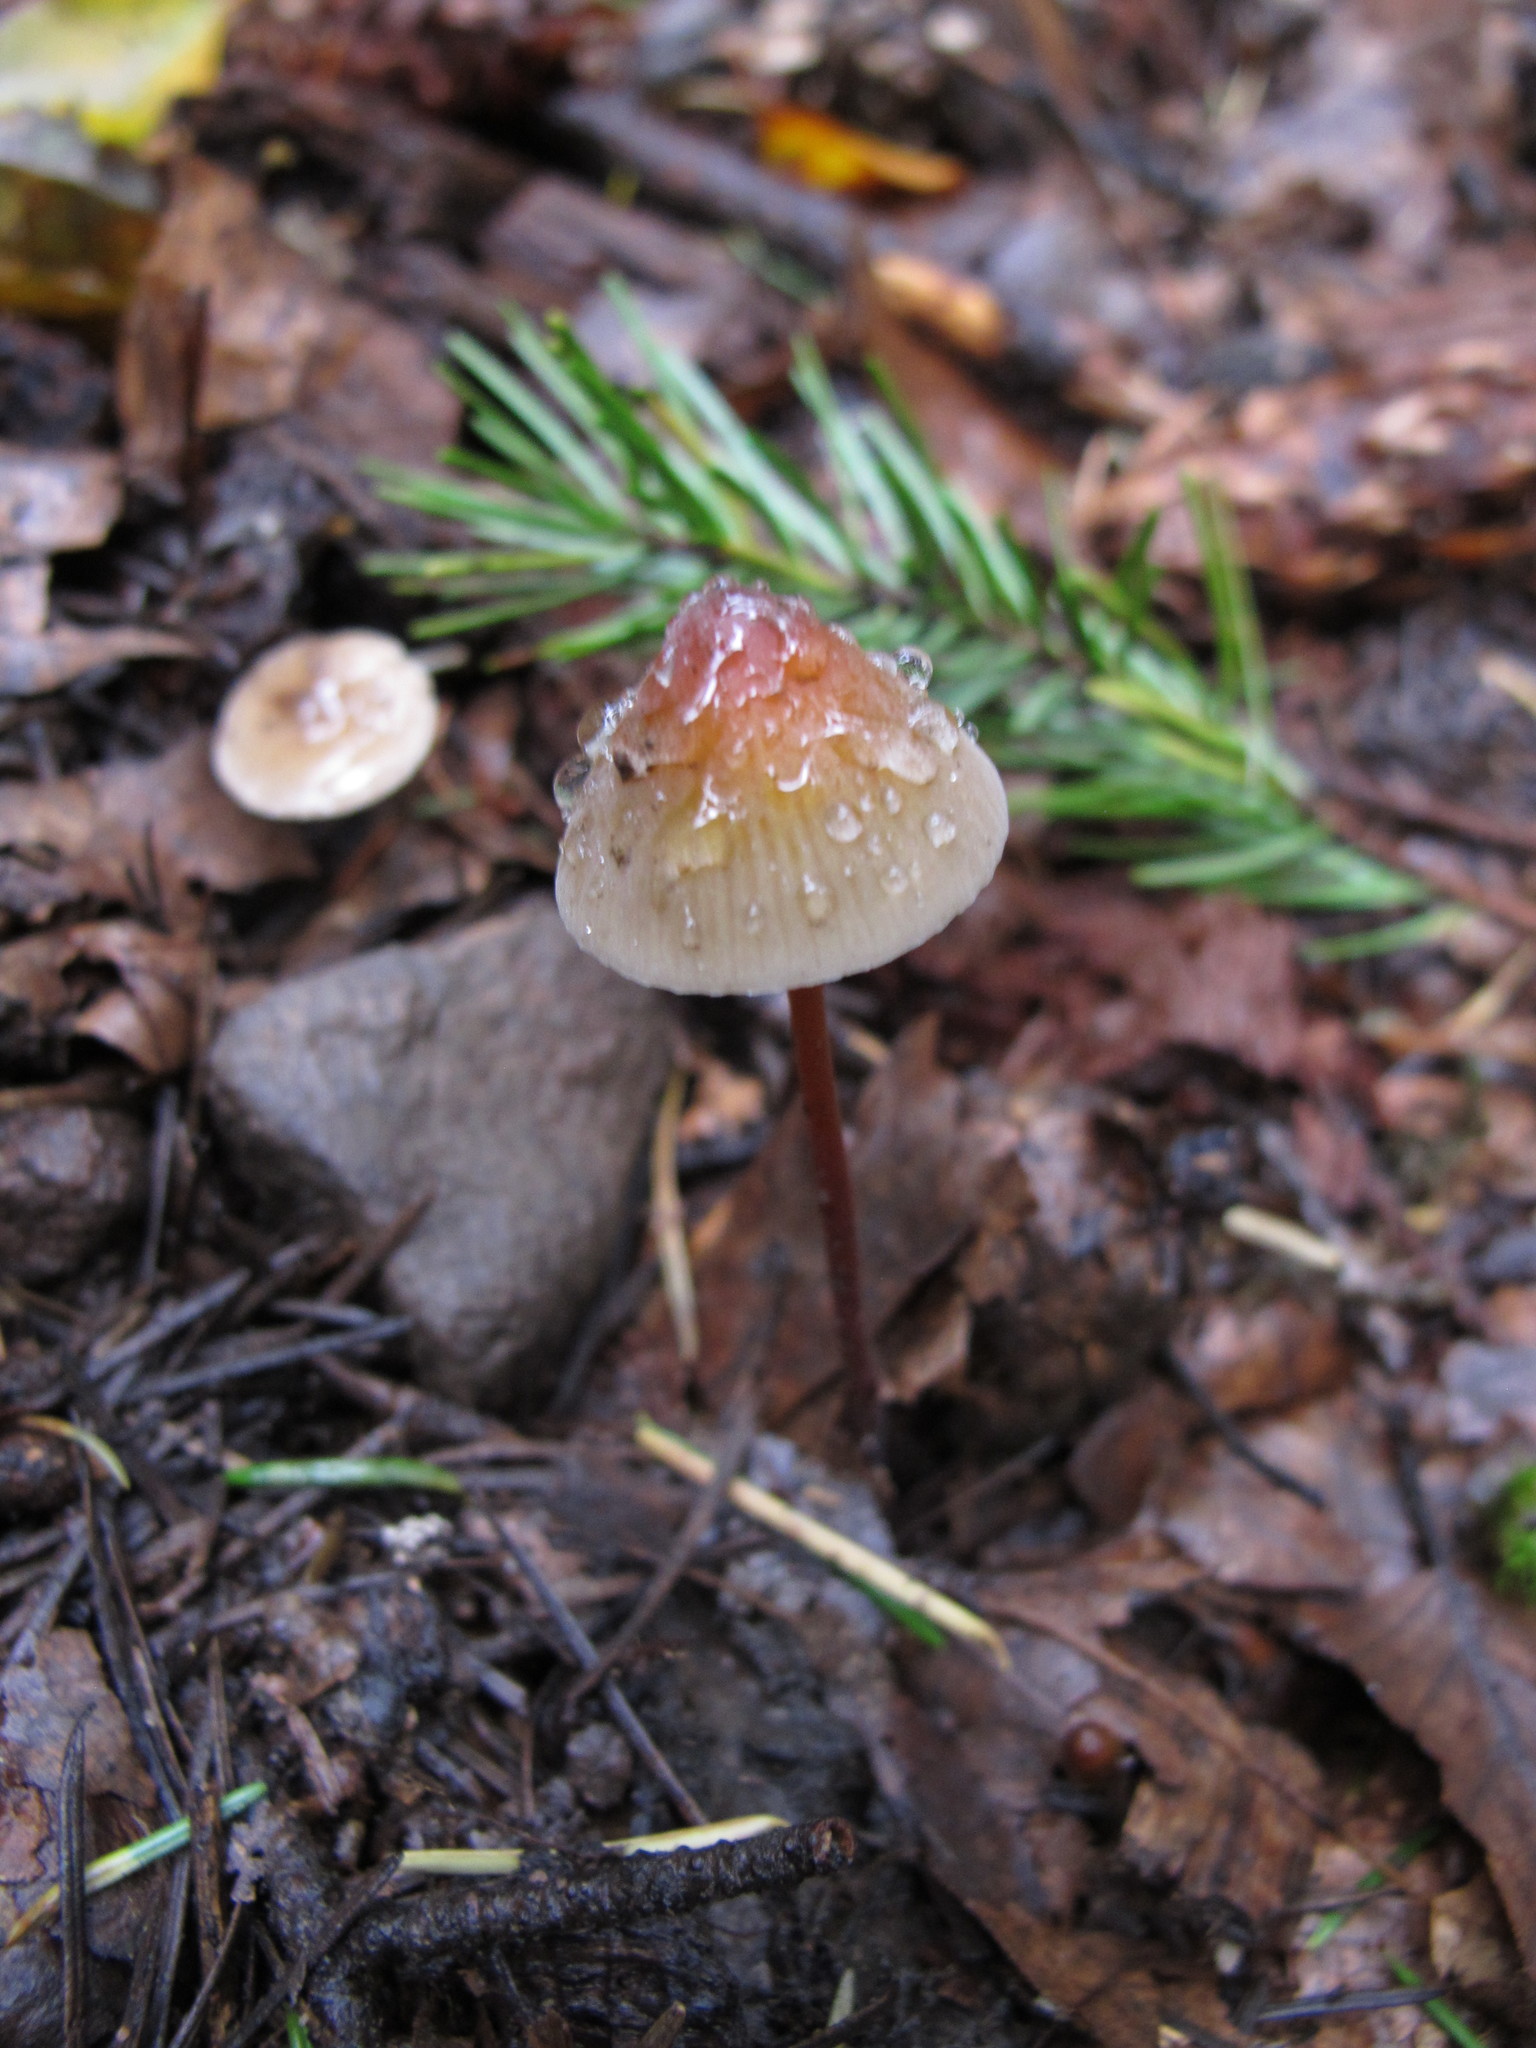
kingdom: Fungi
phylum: Basidiomycota
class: Agaricomycetes
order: Agaricales
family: Mycenaceae
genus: Mycena
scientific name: Mycena crocata
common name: Saffrondrop bonnet
